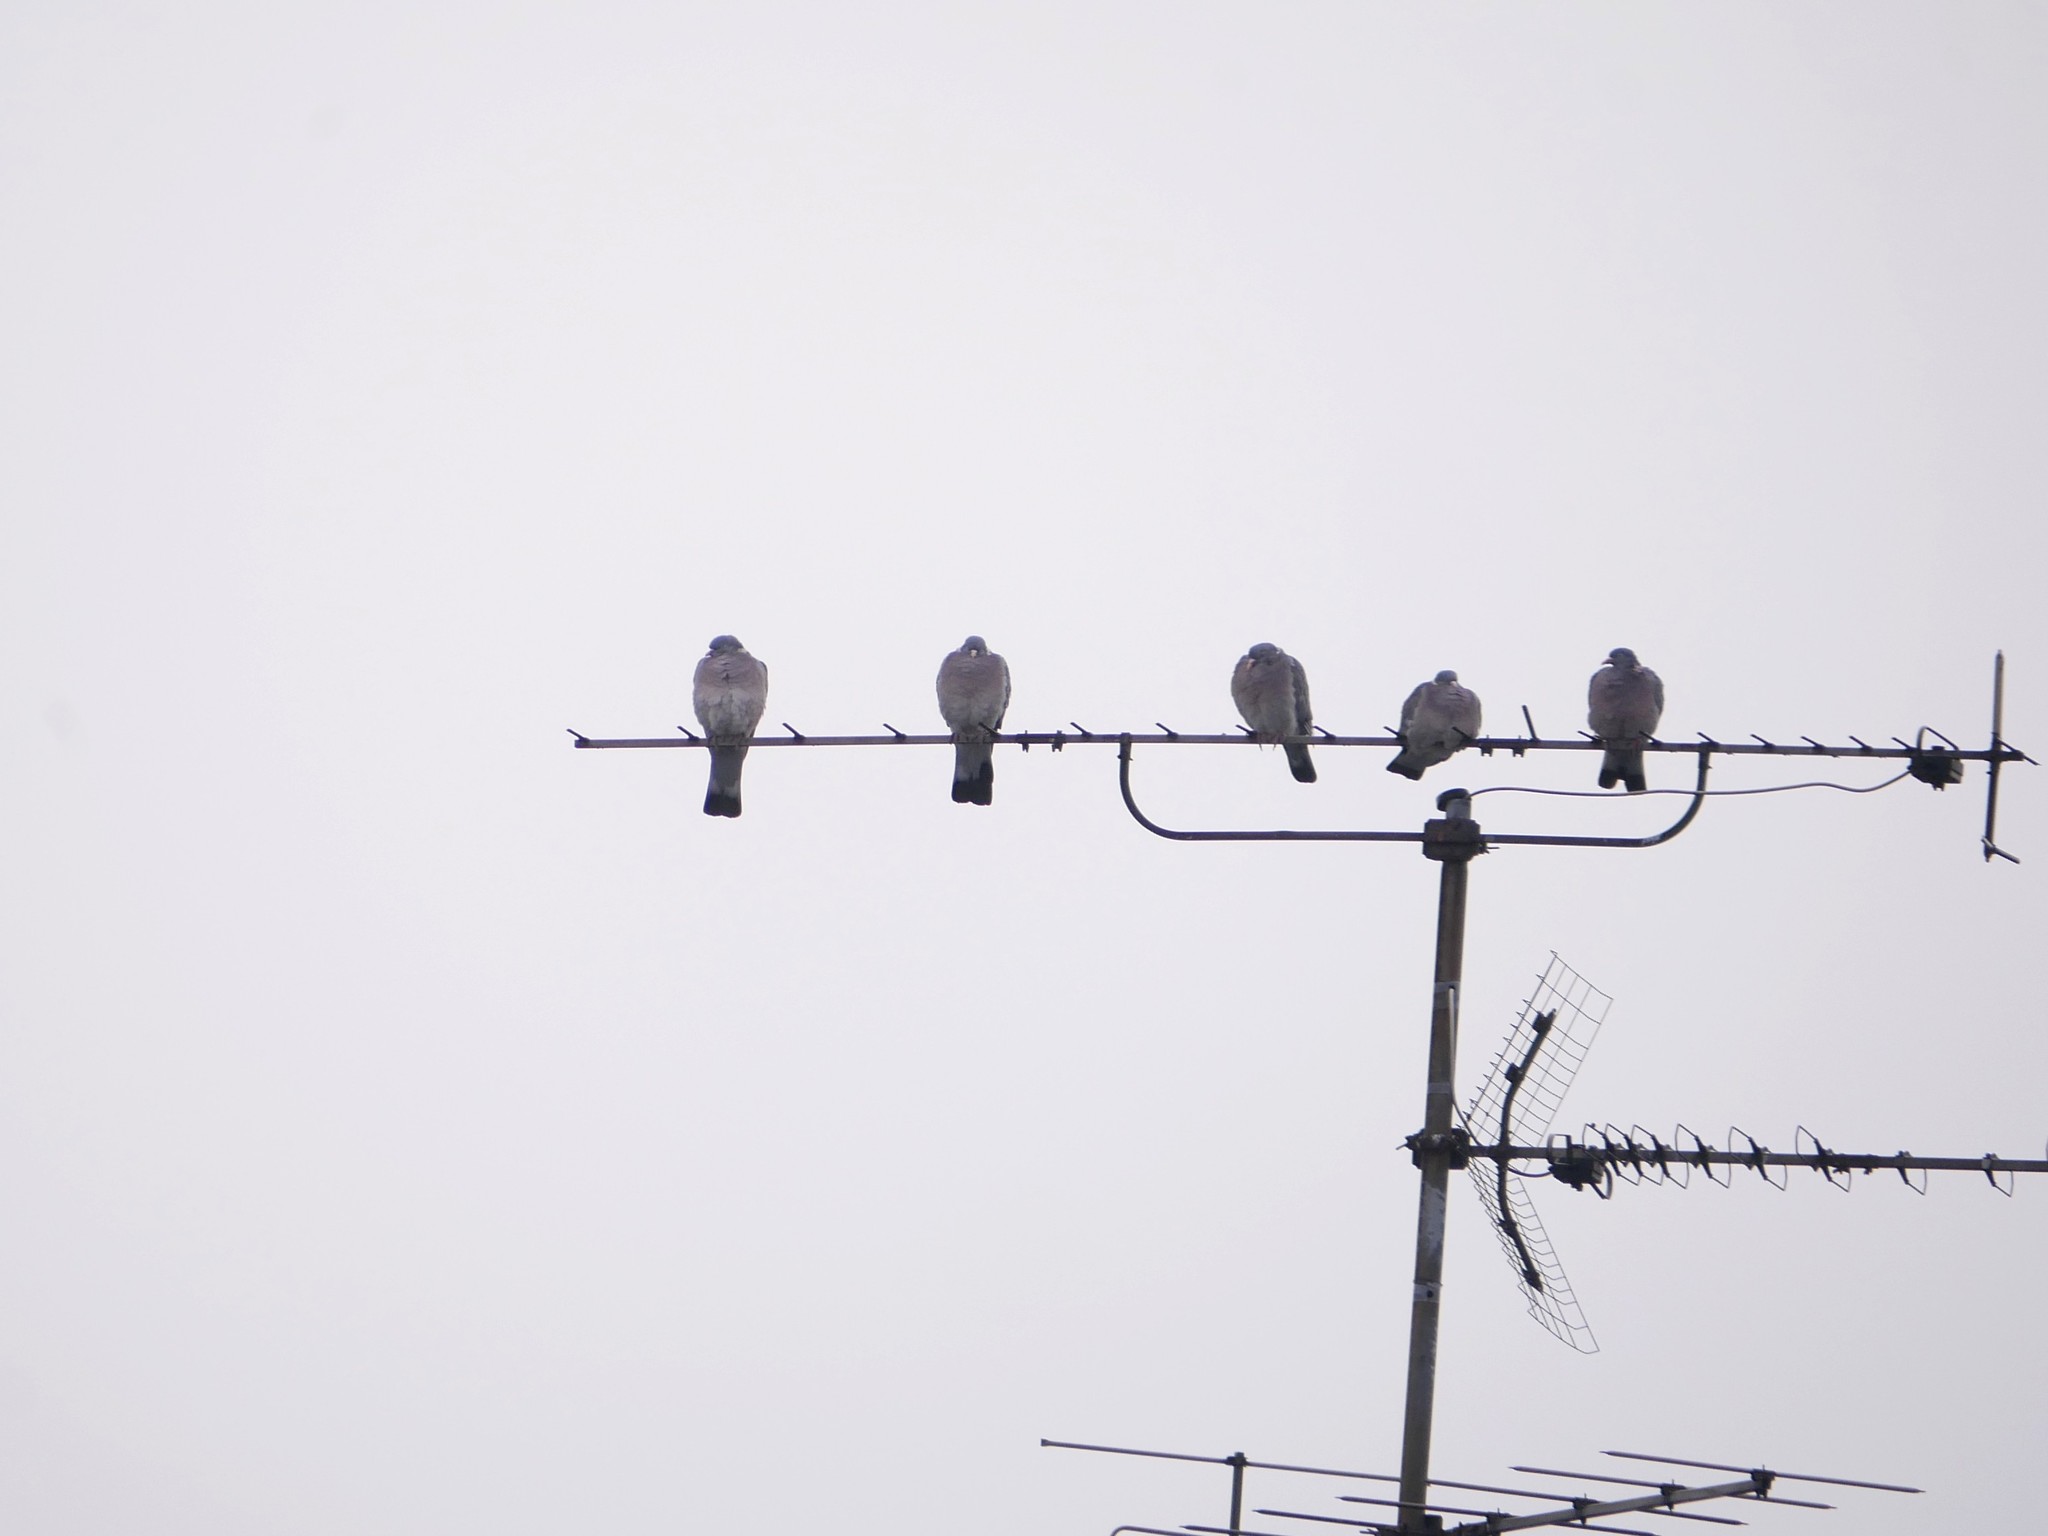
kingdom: Animalia
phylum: Chordata
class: Aves
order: Columbiformes
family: Columbidae
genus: Columba
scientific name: Columba palumbus
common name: Common wood pigeon
